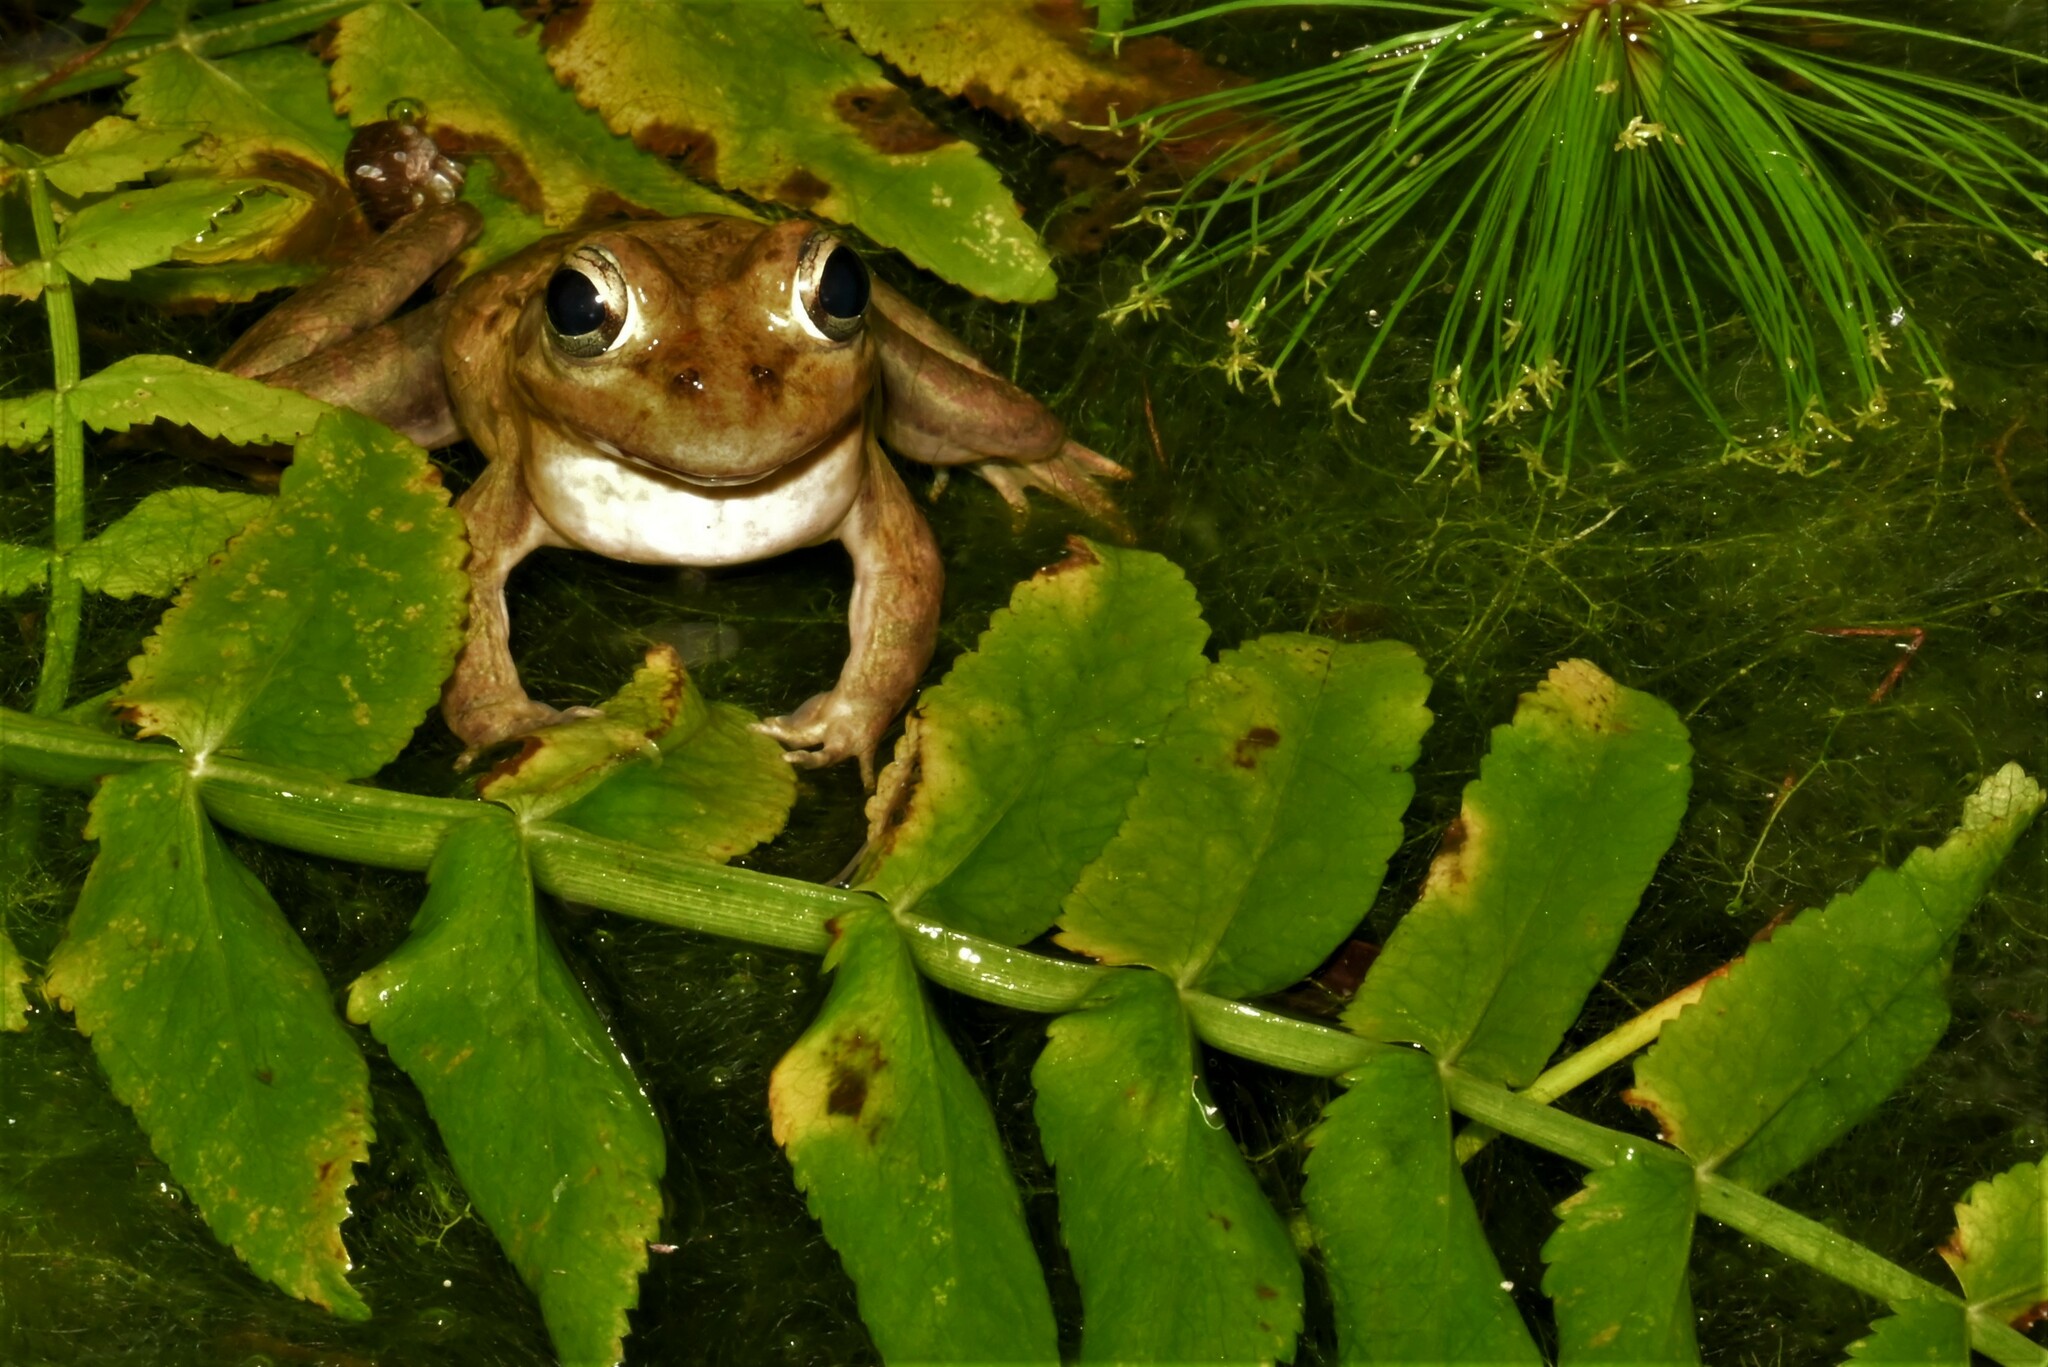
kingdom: Animalia
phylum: Chordata
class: Amphibia
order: Anura
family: Pyxicephalidae
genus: Amietia
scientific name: Amietia fuscigula
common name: Cape rana
